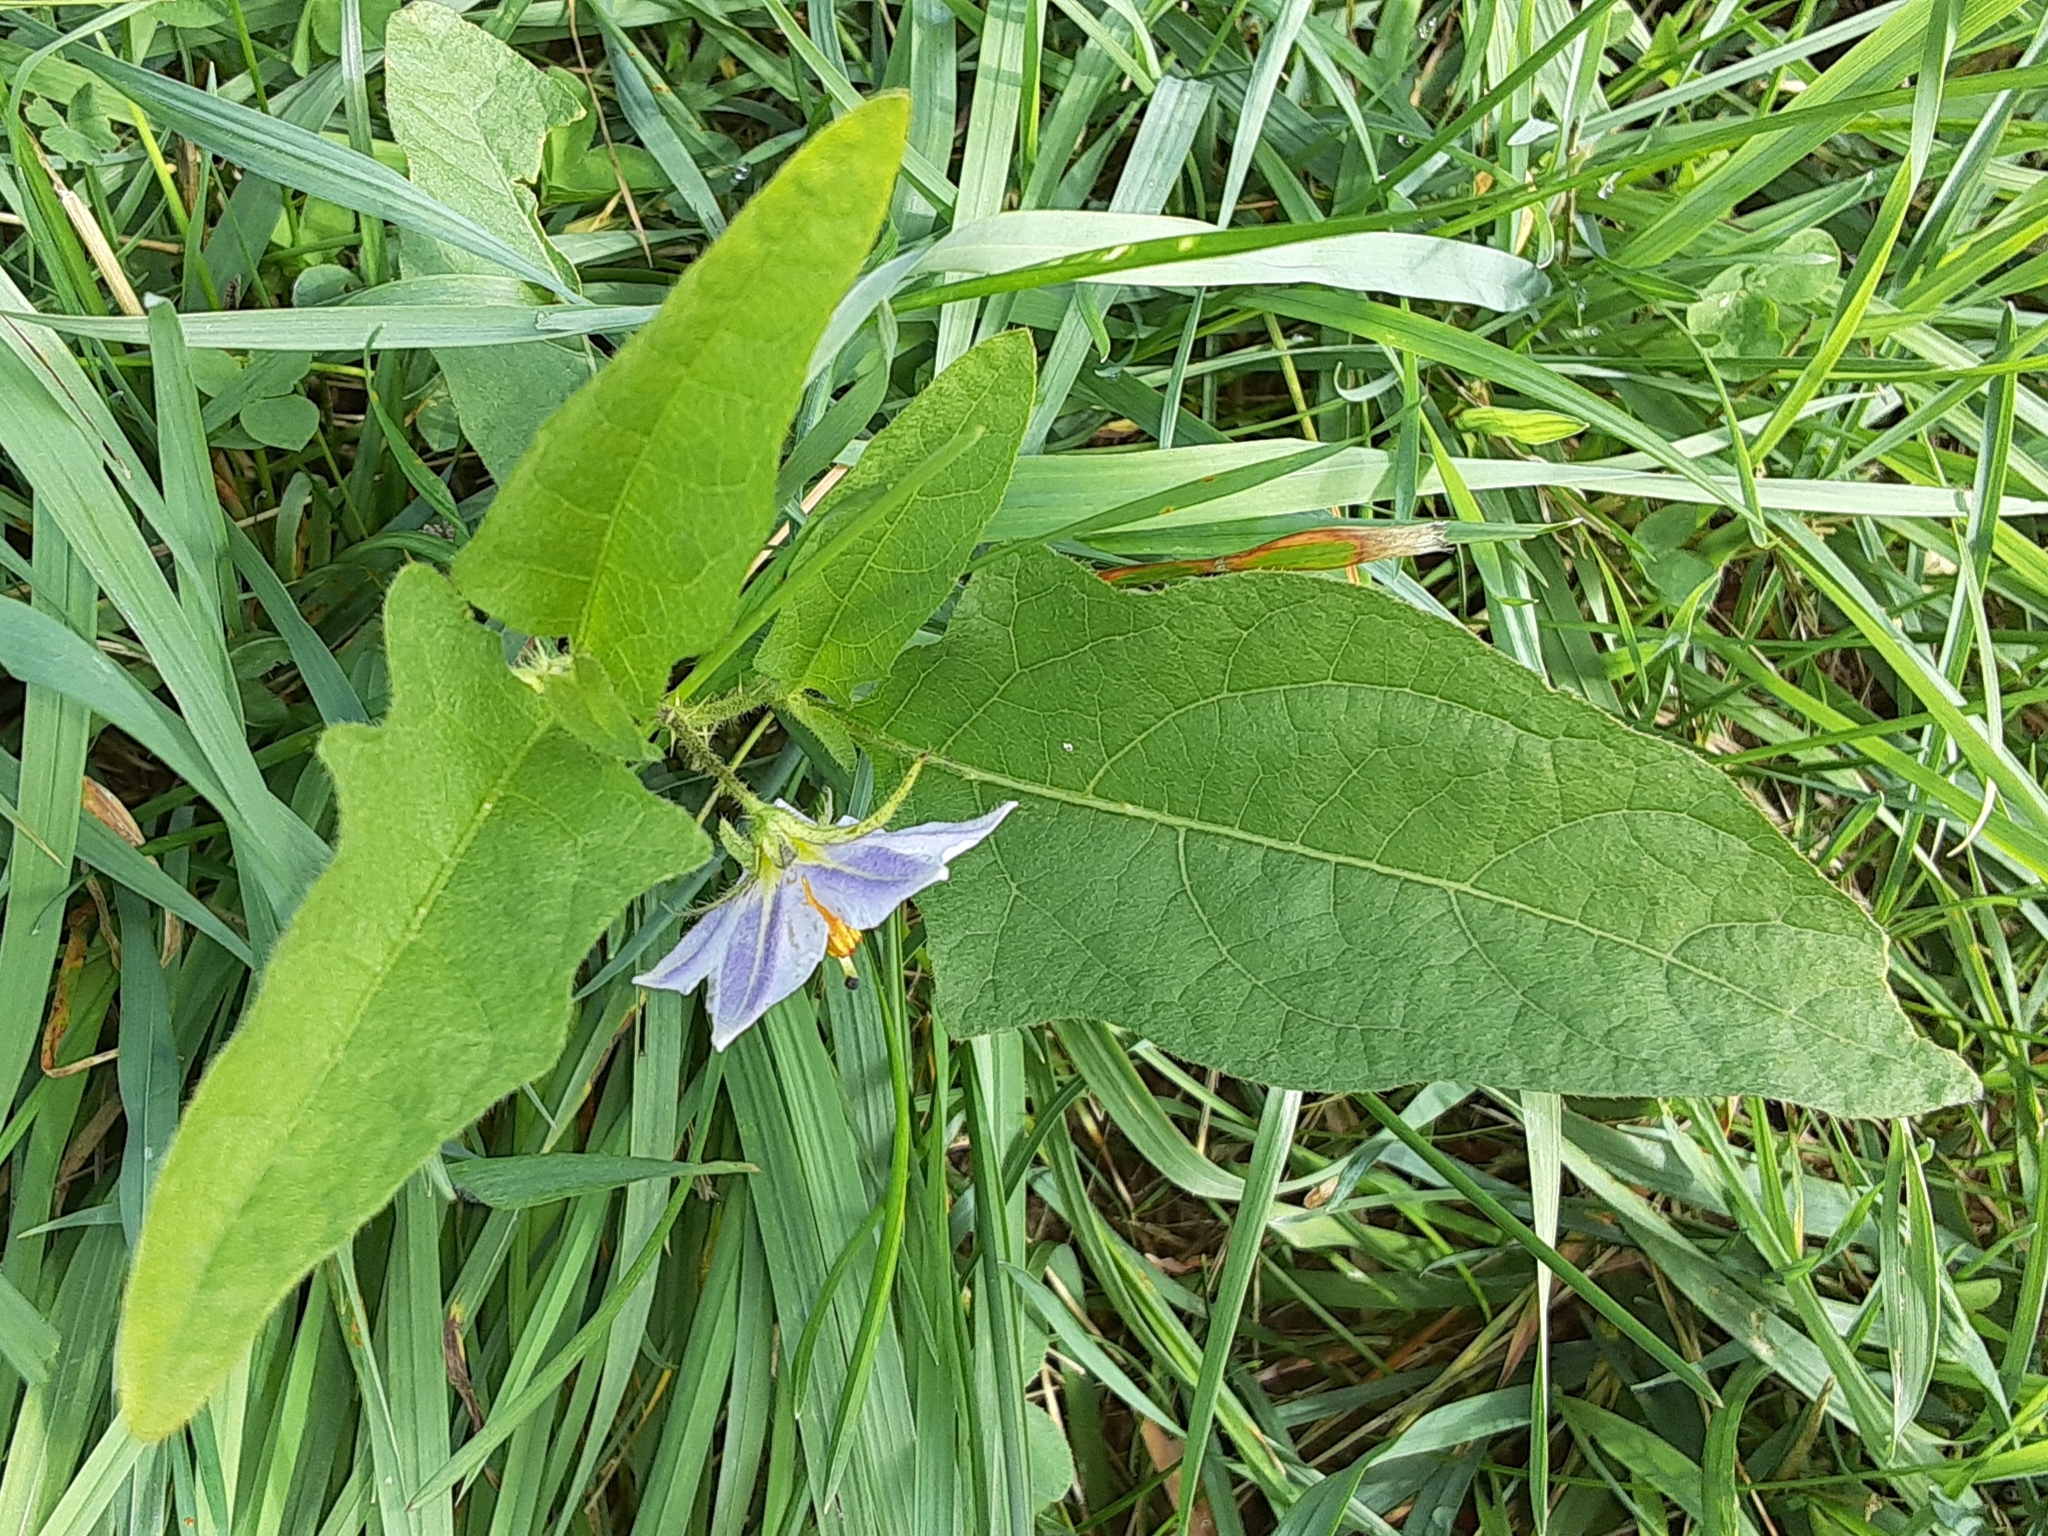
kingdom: Plantae
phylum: Tracheophyta
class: Magnoliopsida
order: Solanales
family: Solanaceae
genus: Solanum
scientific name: Solanum carolinense
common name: Horse-nettle
